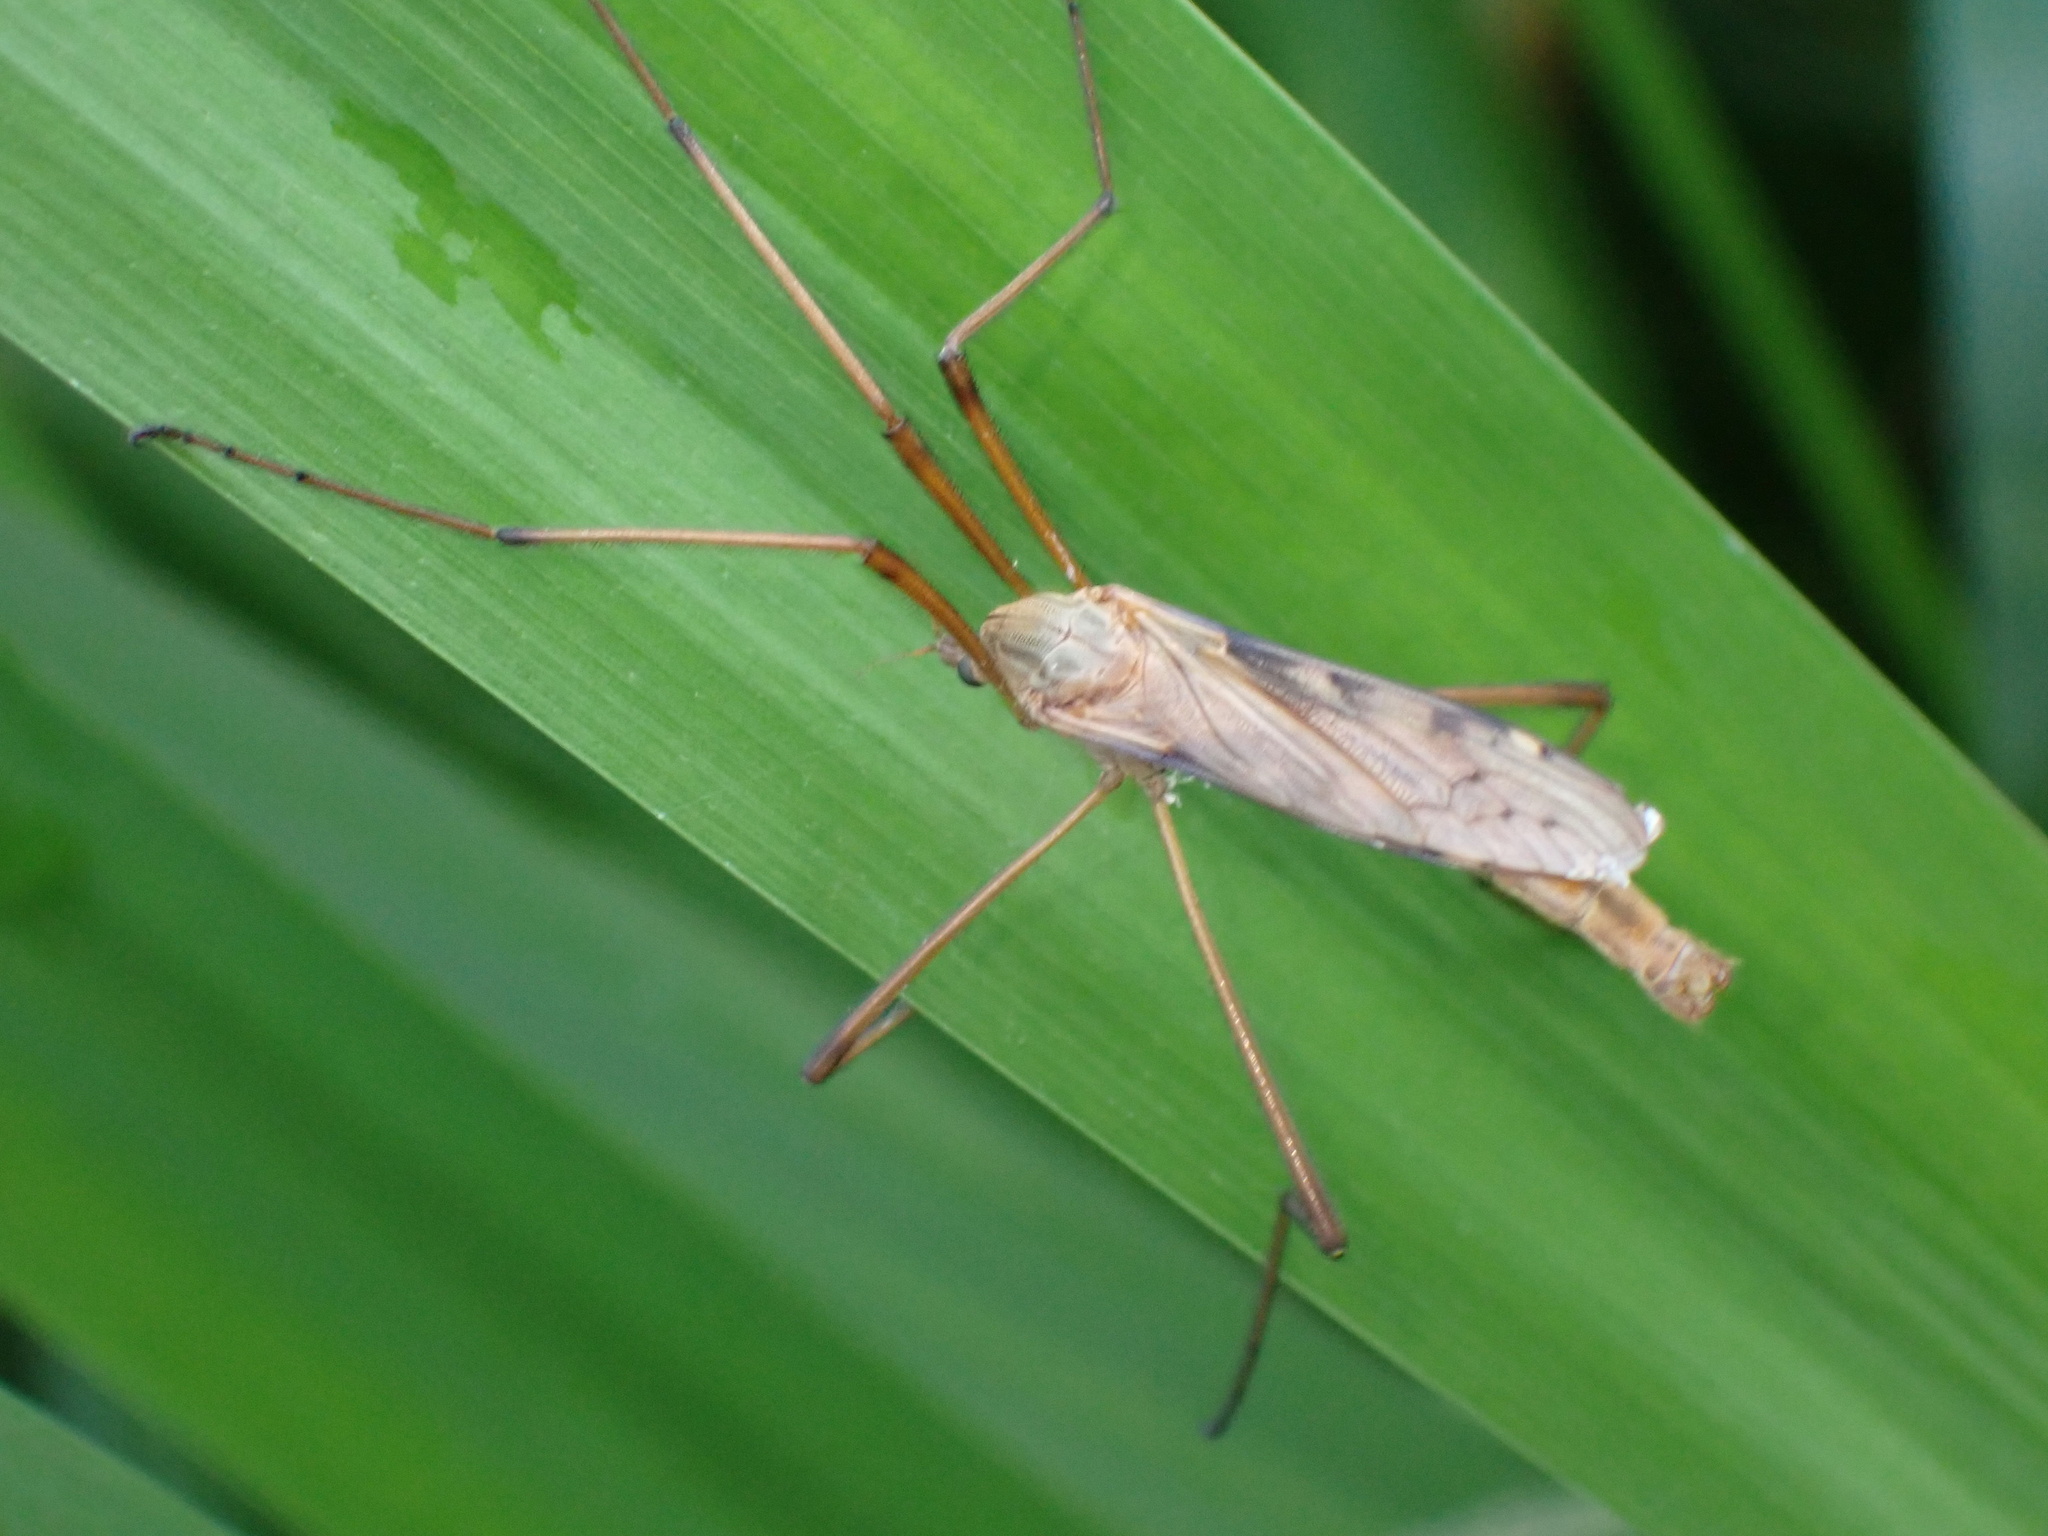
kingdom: Animalia
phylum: Arthropoda
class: Insecta
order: Diptera
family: Limoniidae
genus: Eutonia
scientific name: Eutonia barbipes
